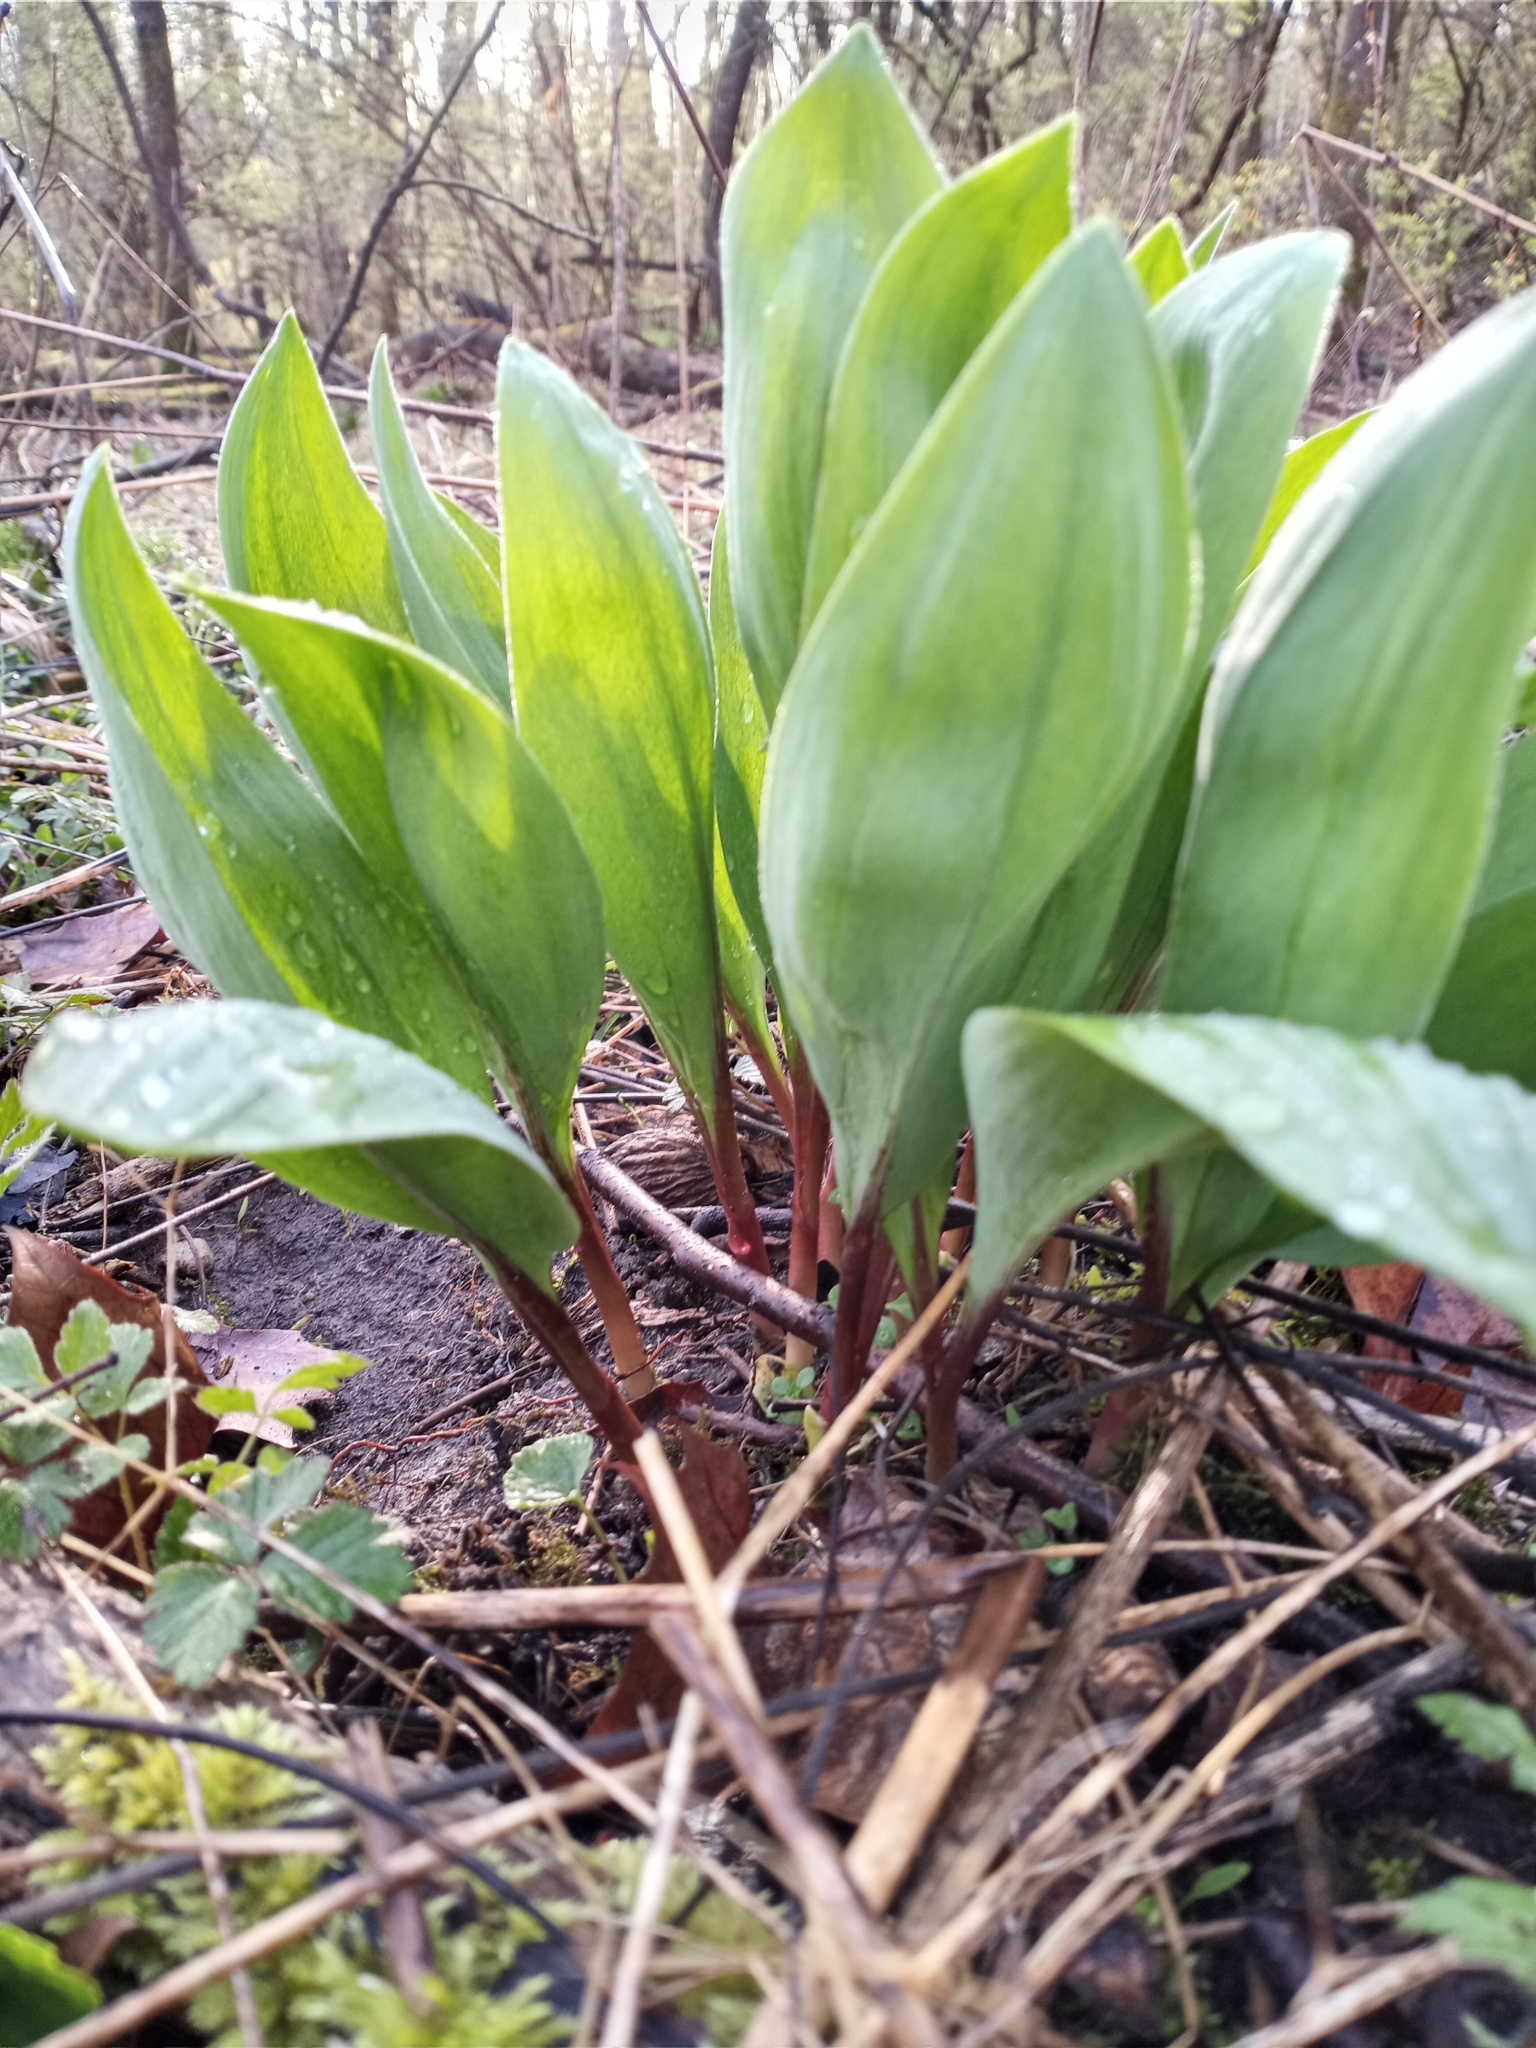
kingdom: Plantae
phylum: Tracheophyta
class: Liliopsida
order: Asparagales
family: Amaryllidaceae
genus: Allium
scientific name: Allium tricoccum
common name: Ramp
